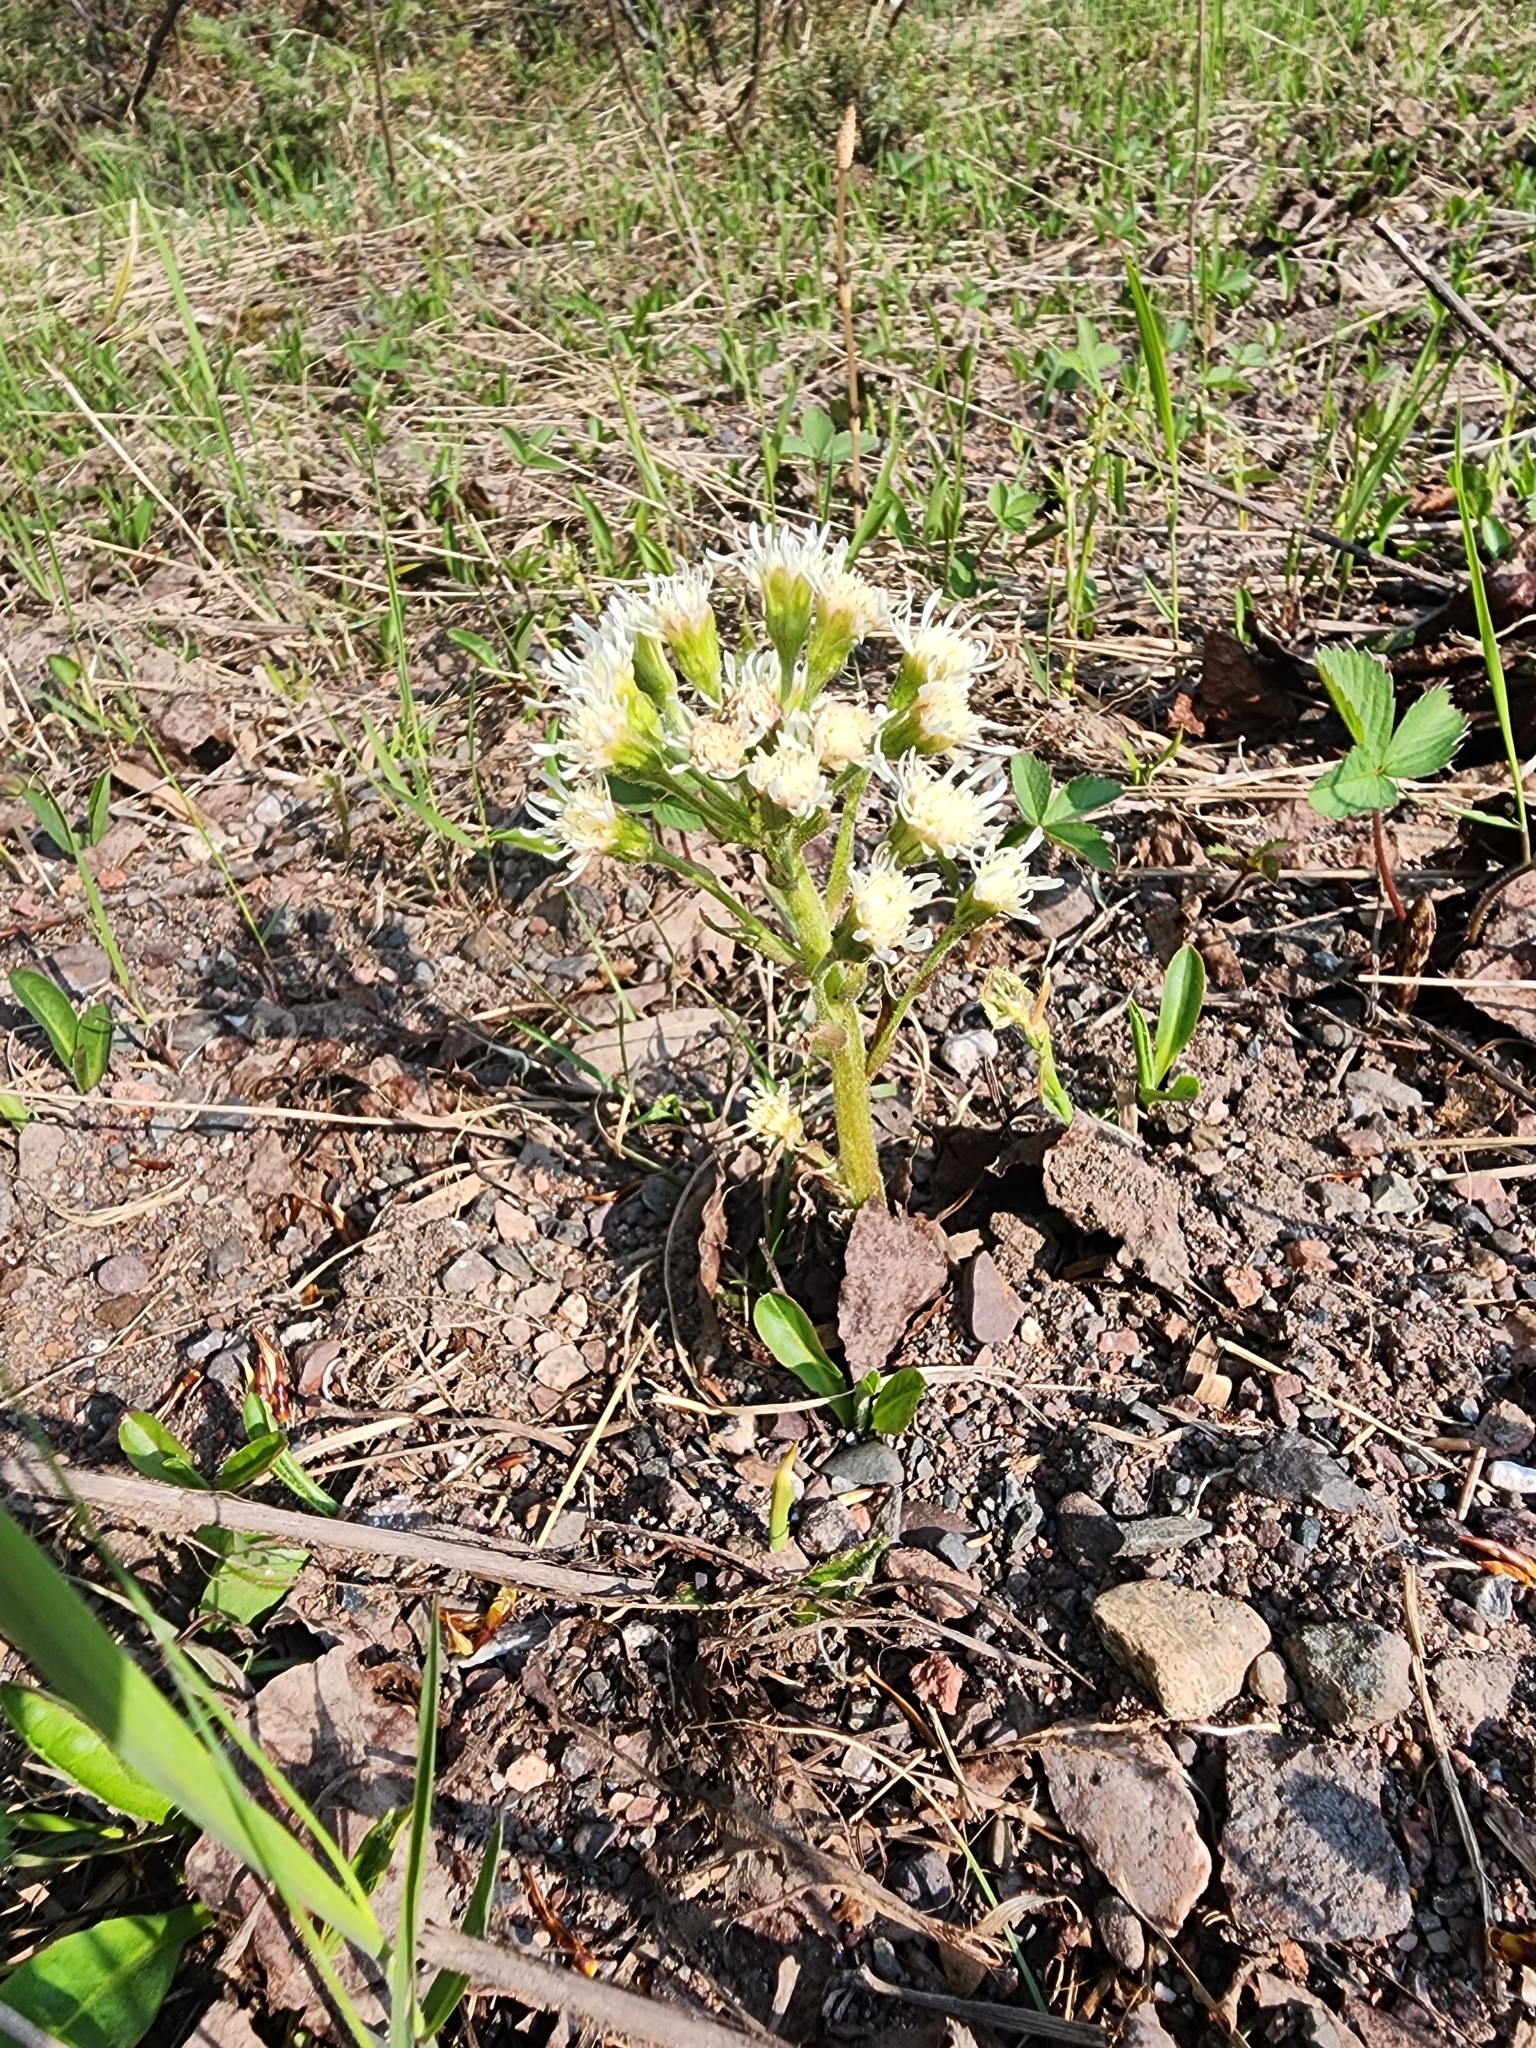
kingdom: Plantae
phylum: Tracheophyta
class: Magnoliopsida
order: Asterales
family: Asteraceae
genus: Petasites
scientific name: Petasites frigidus
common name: Arctic butterbur
